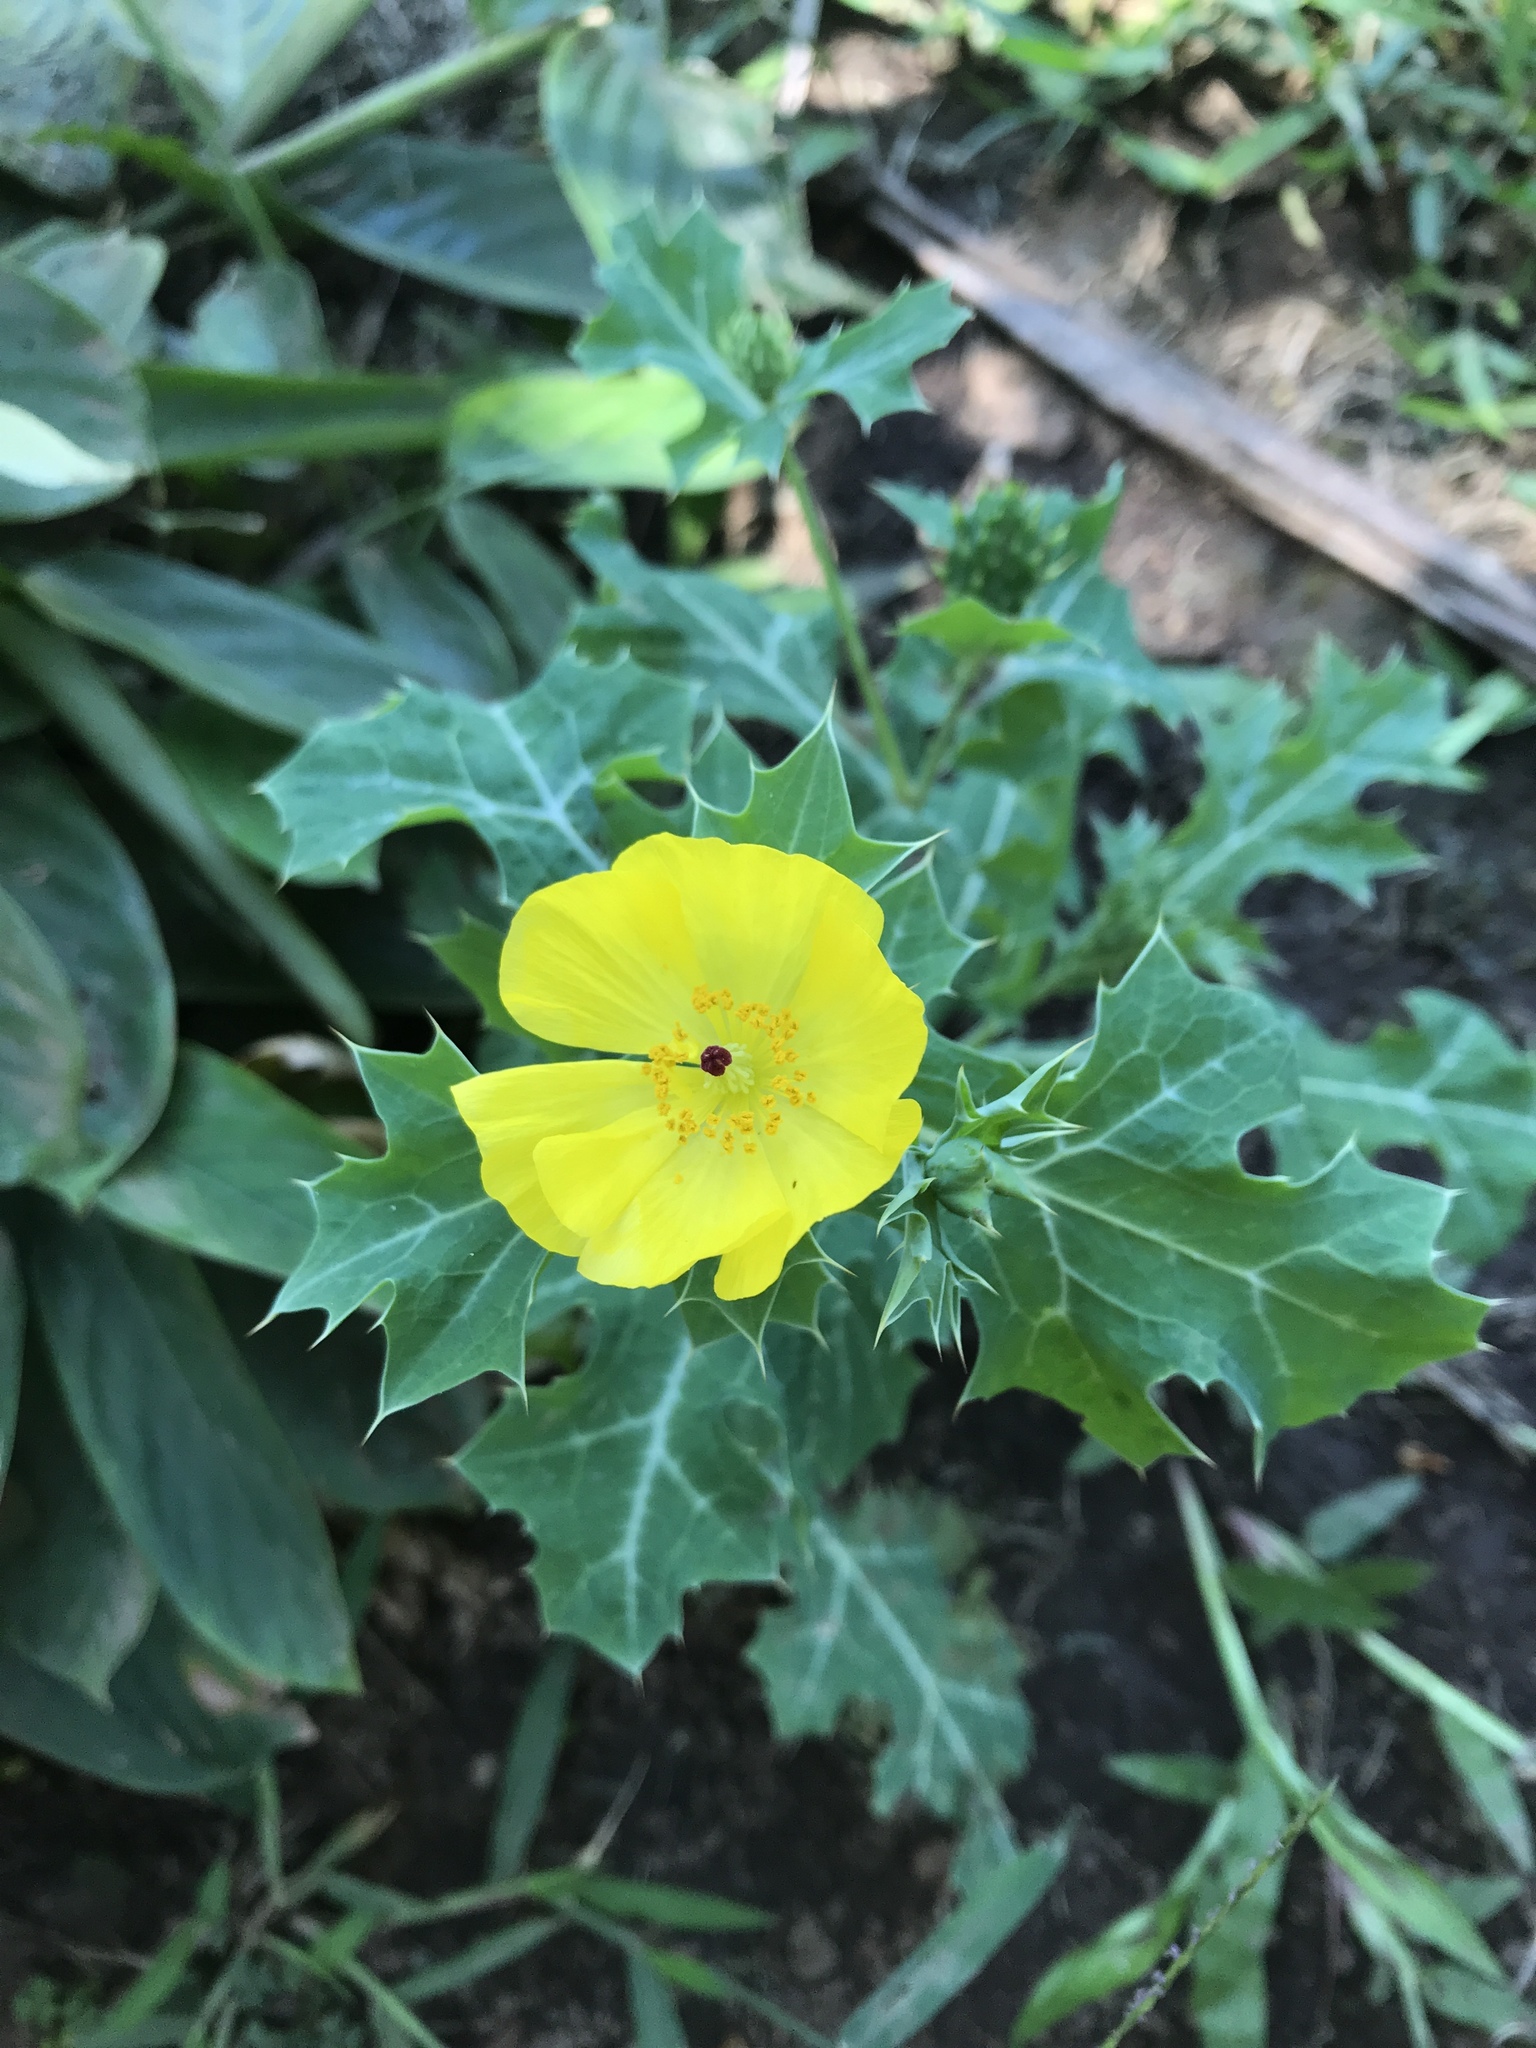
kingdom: Plantae
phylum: Tracheophyta
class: Magnoliopsida
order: Ranunculales
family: Papaveraceae
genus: Argemone
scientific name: Argemone mexicana
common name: Mexican poppy
